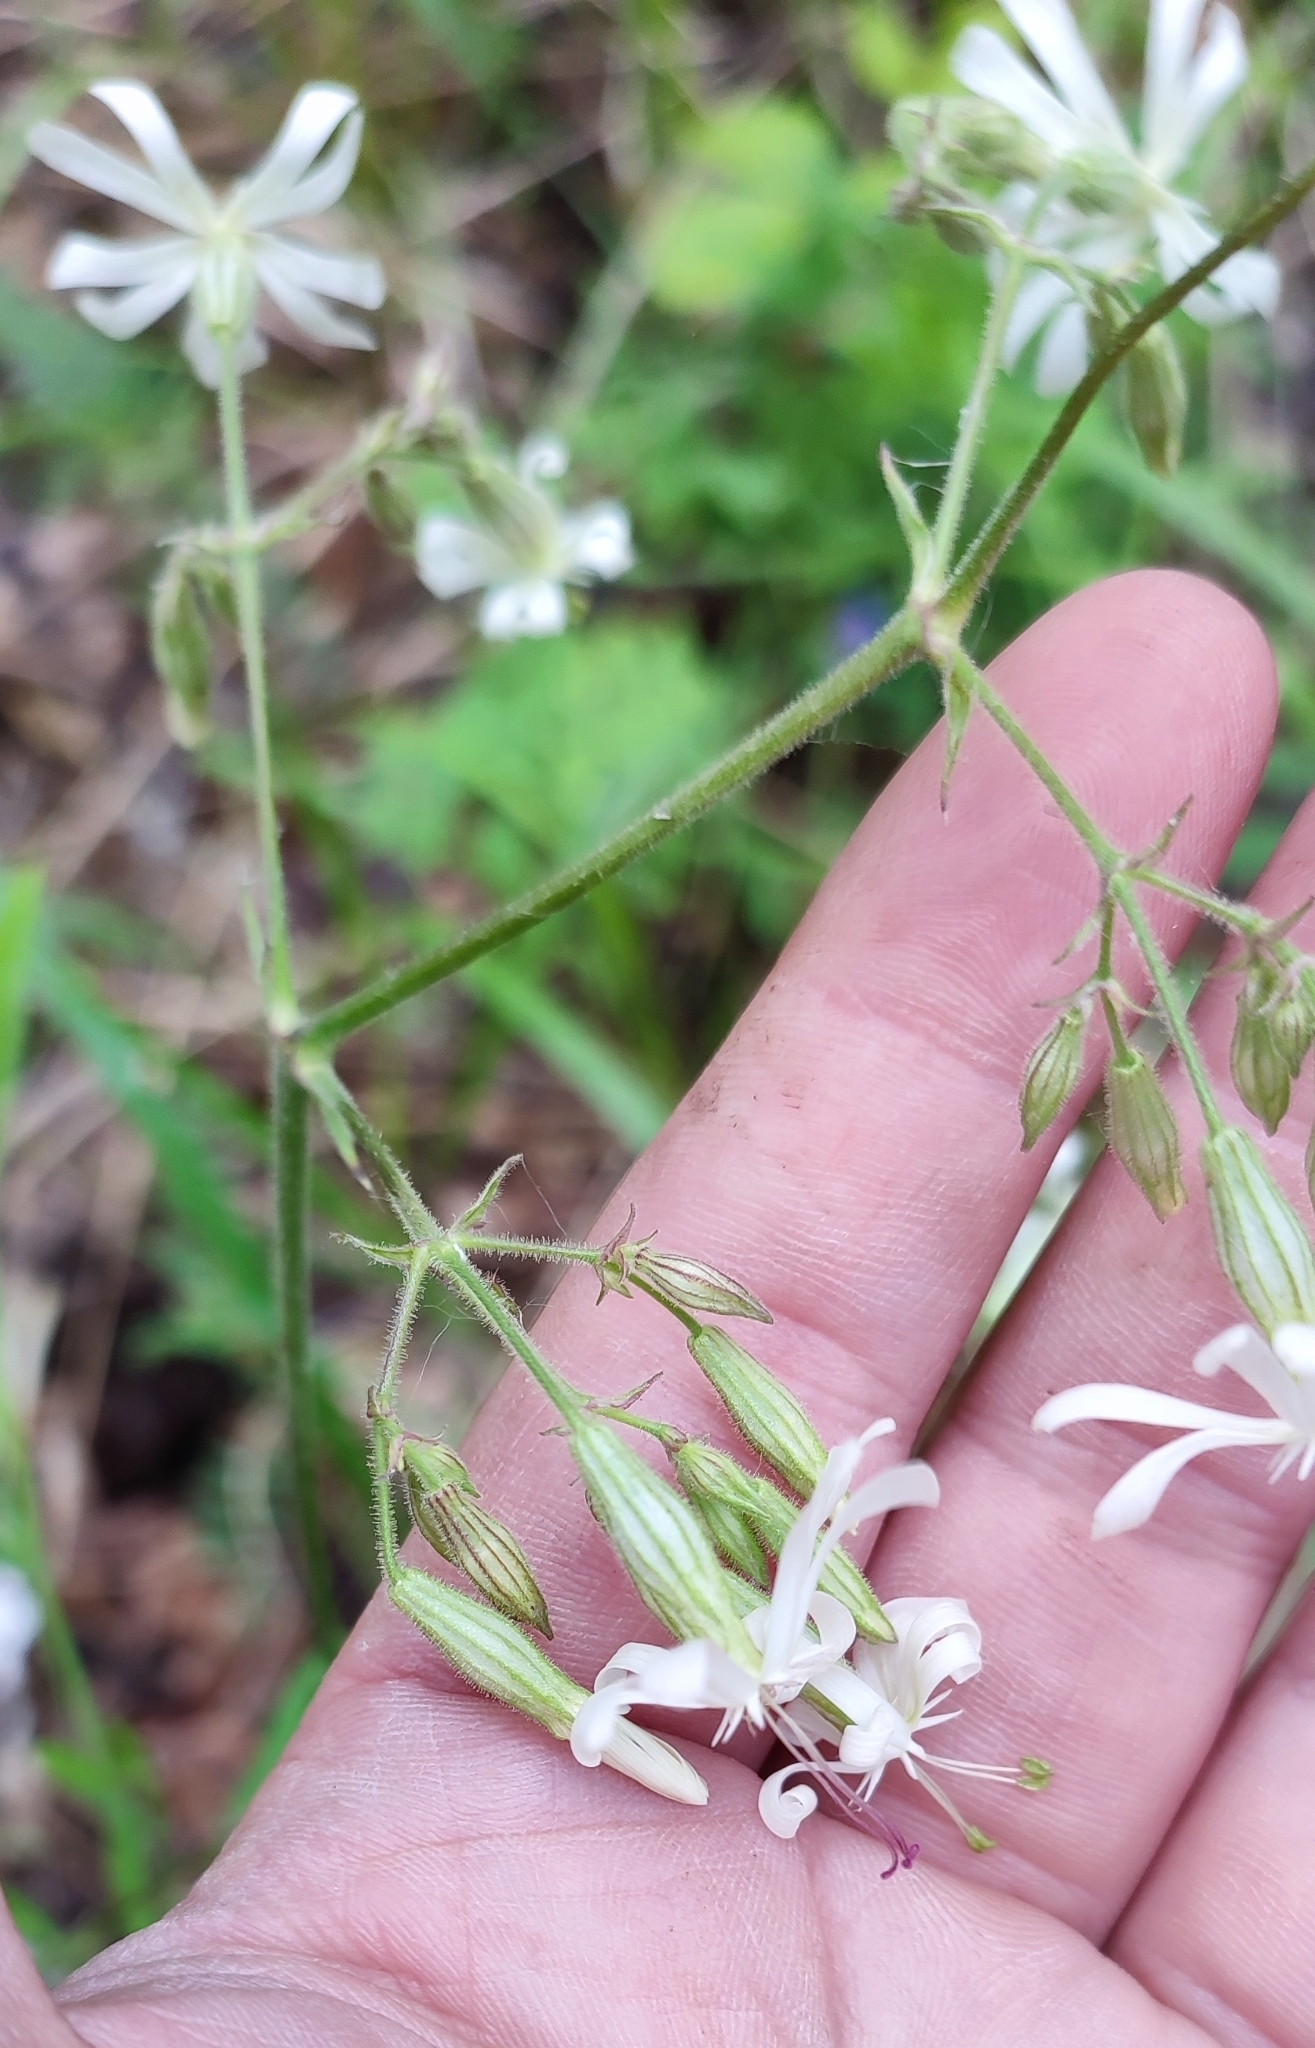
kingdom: Plantae
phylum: Tracheophyta
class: Magnoliopsida
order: Caryophyllales
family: Caryophyllaceae
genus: Silene
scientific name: Silene nutans
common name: Nottingham catchfly
